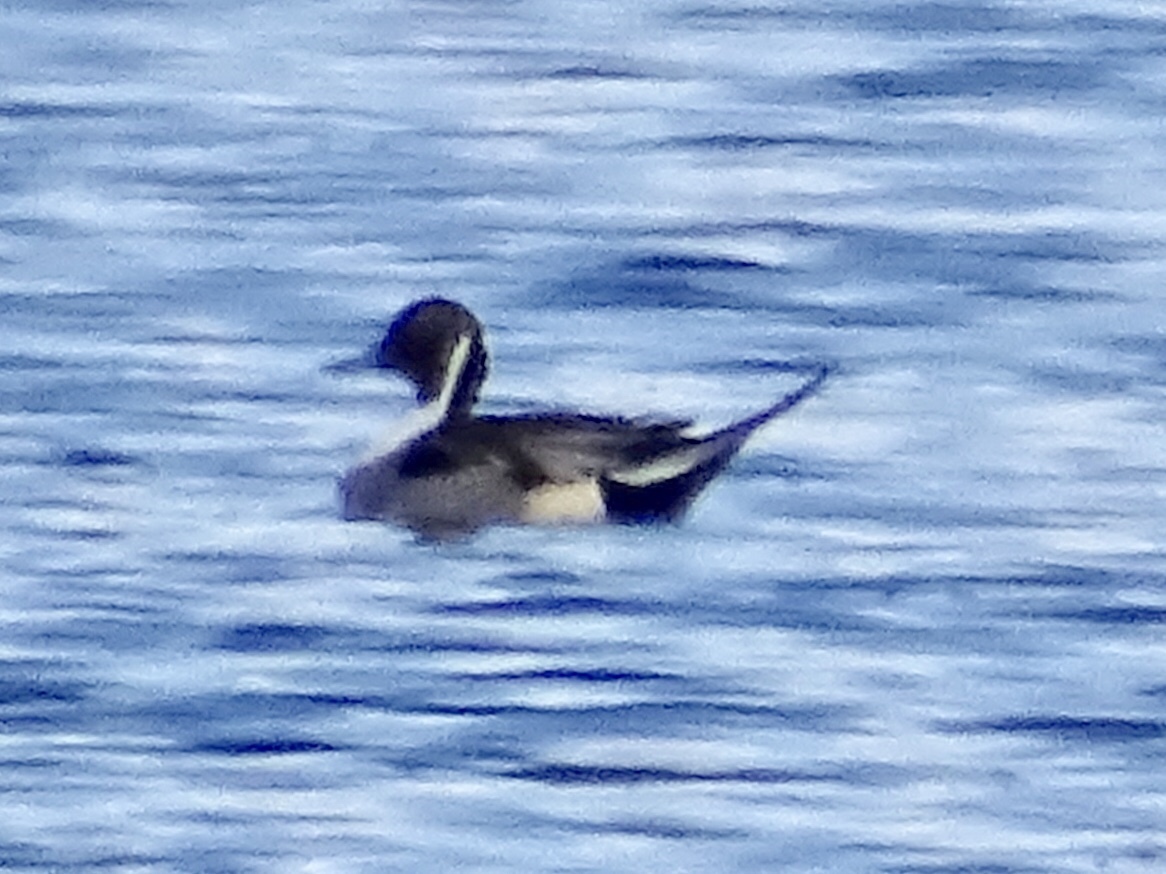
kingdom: Animalia
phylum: Chordata
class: Aves
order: Anseriformes
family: Anatidae
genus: Anas
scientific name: Anas acuta
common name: Northern pintail
